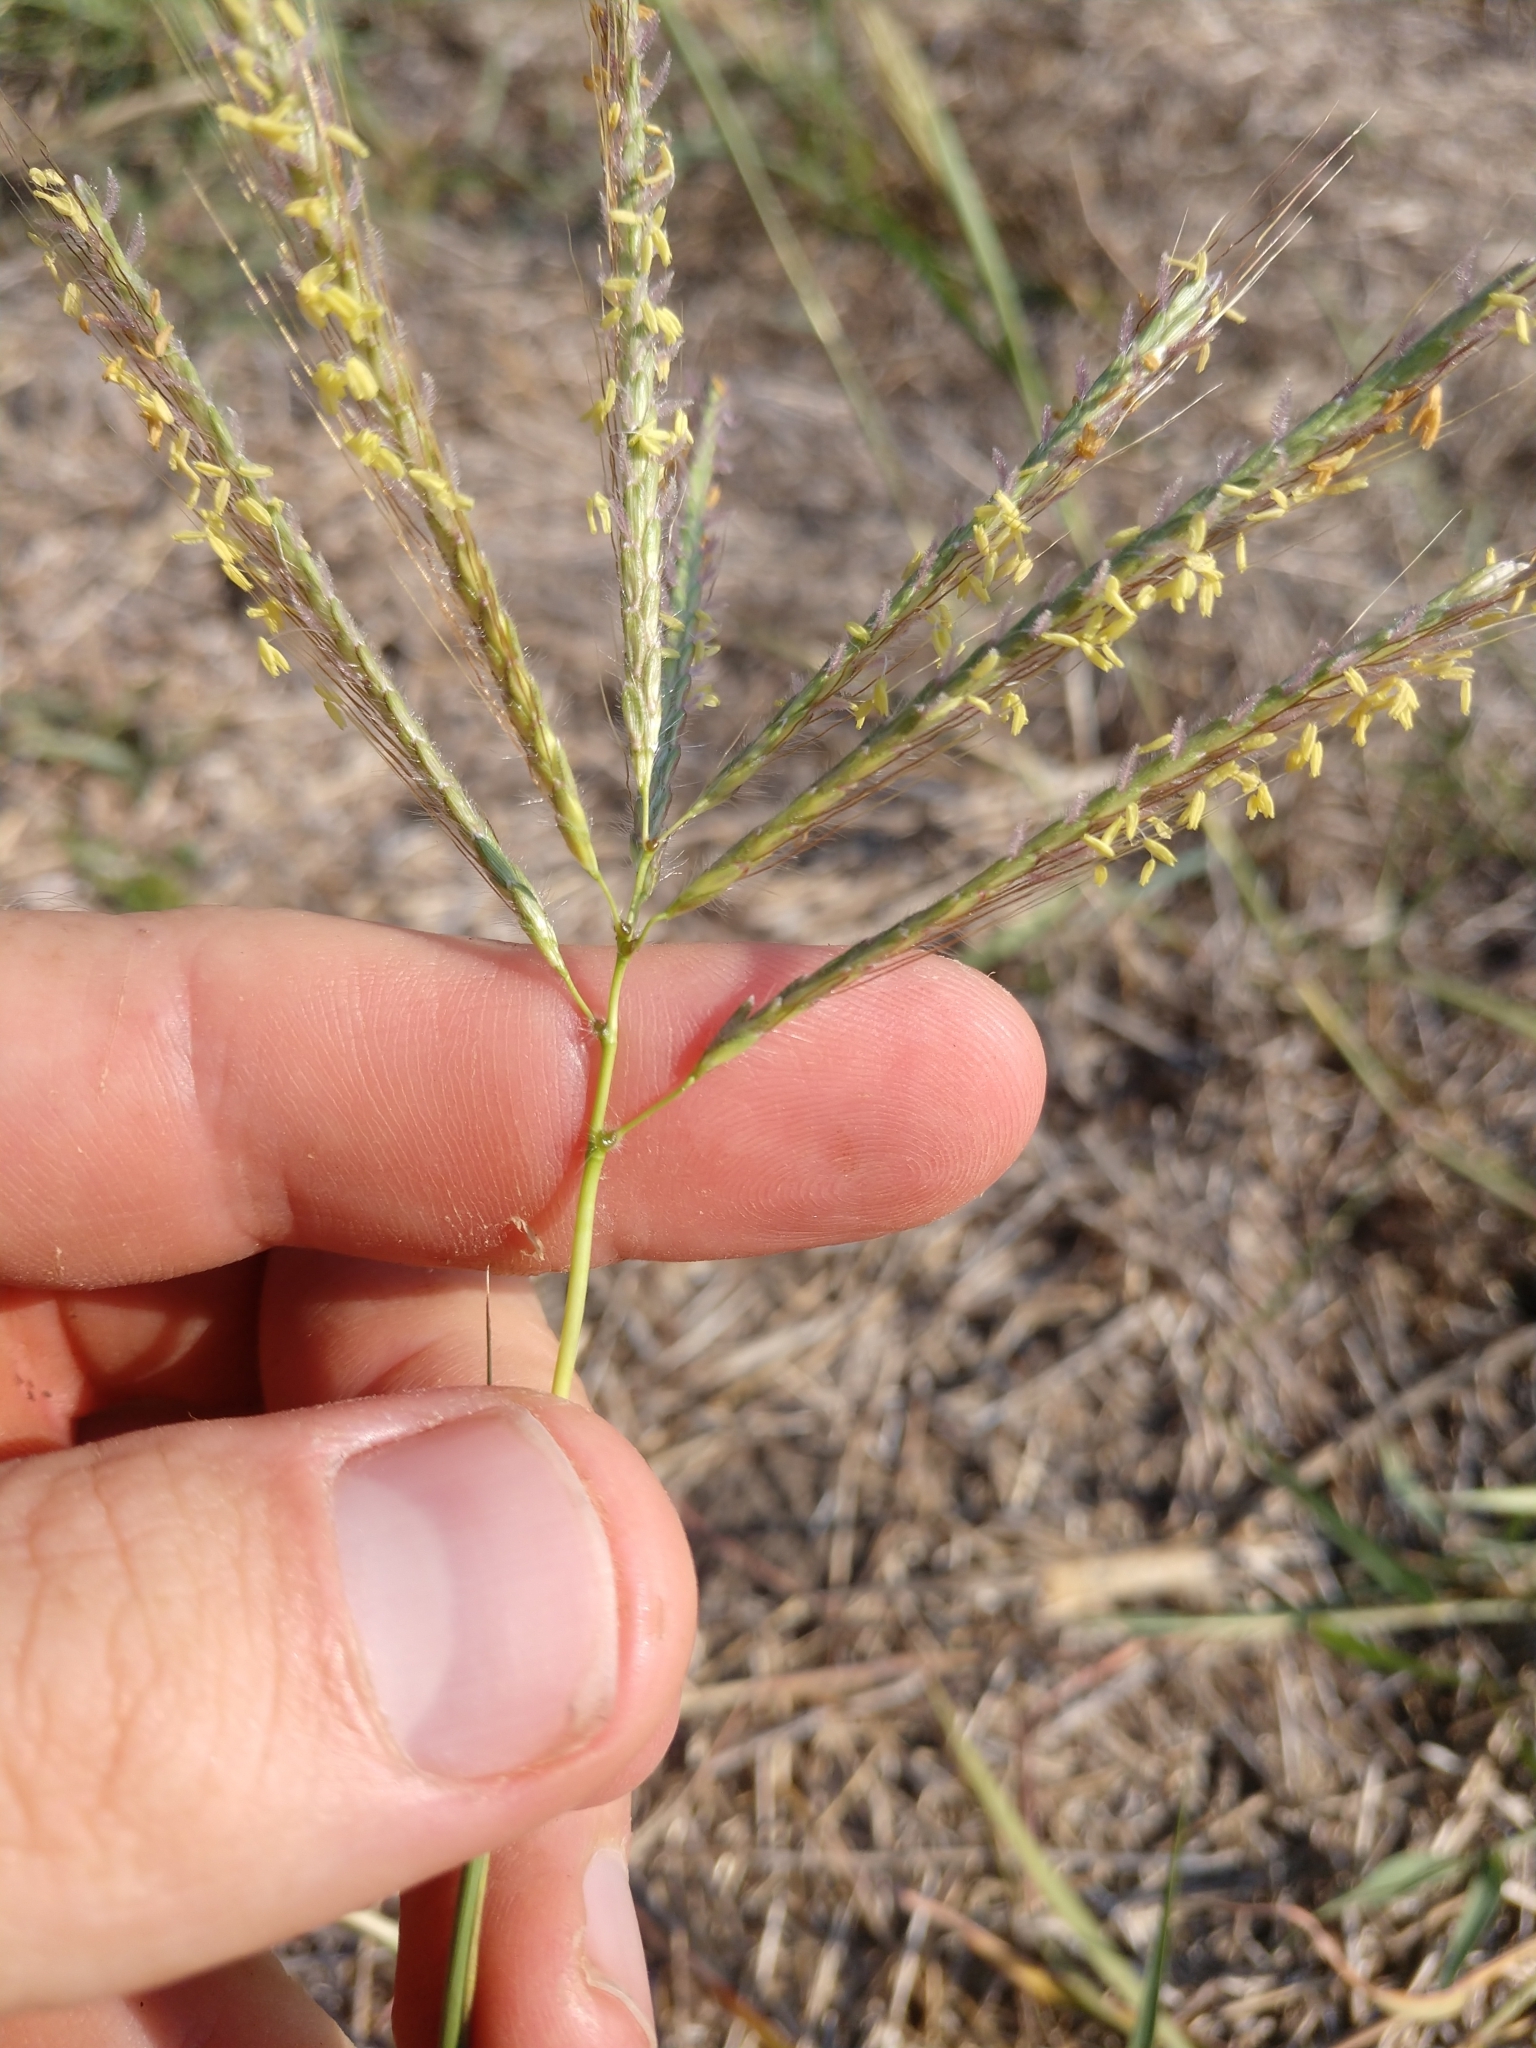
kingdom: Plantae
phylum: Tracheophyta
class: Liliopsida
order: Poales
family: Poaceae
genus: Dichanthium
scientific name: Dichanthium annulatum
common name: Kleberg's bluestem
